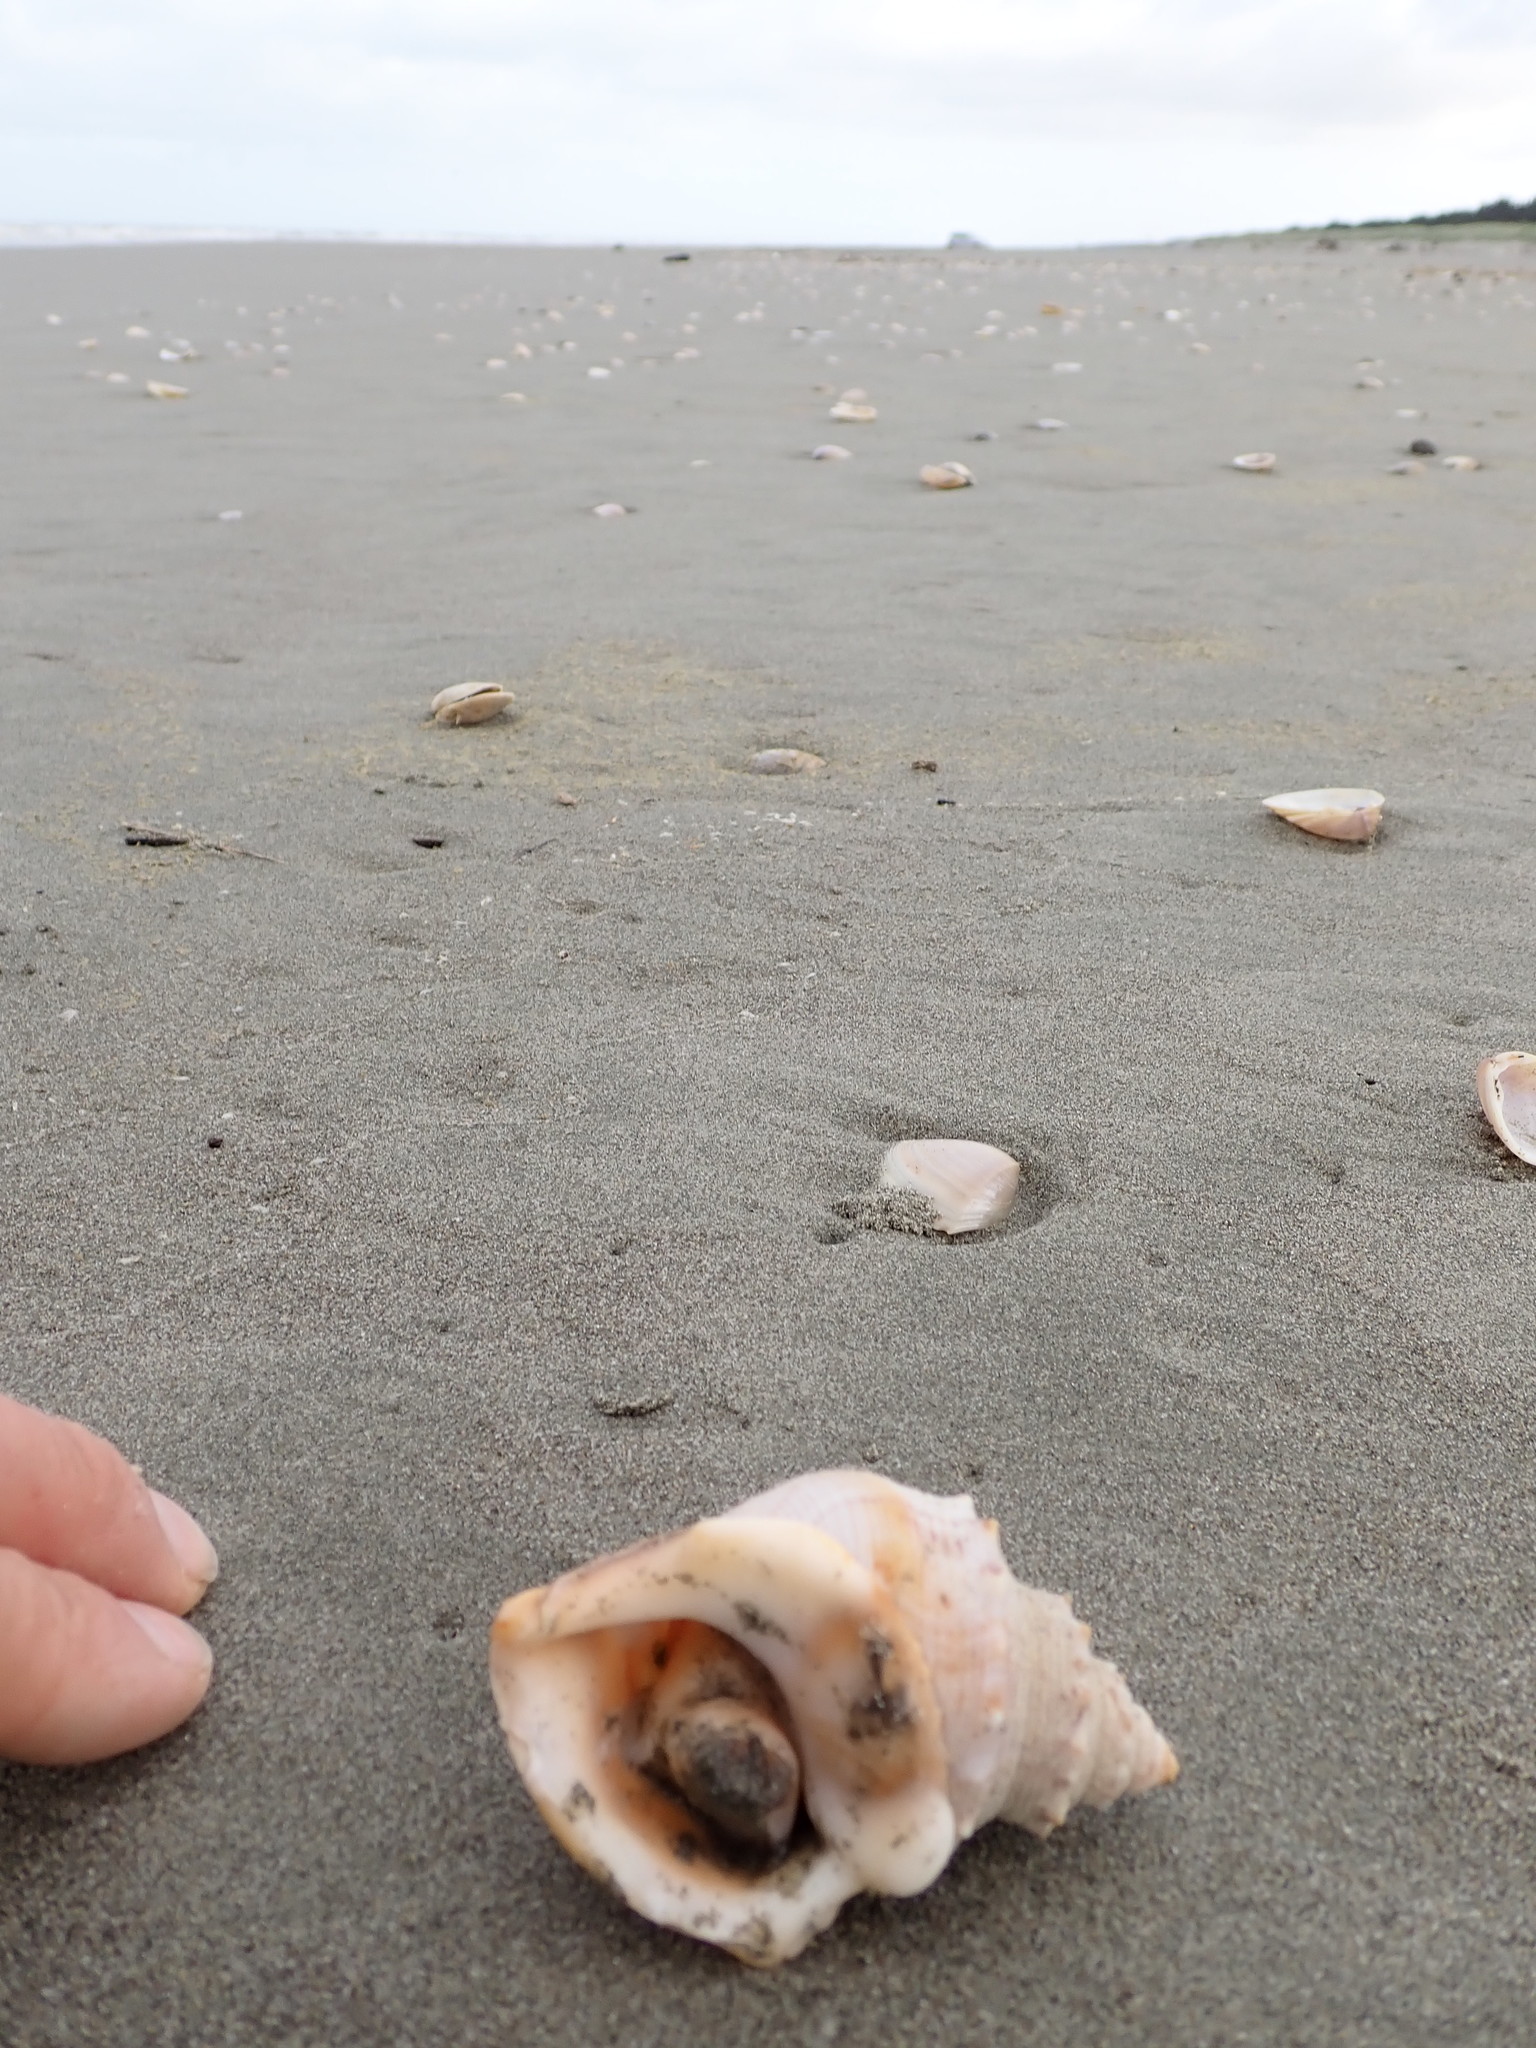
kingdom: Animalia
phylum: Mollusca
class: Gastropoda
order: Littorinimorpha
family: Struthiolariidae
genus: Struthiolaria
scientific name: Struthiolaria papulosa
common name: Large ostrich foot
